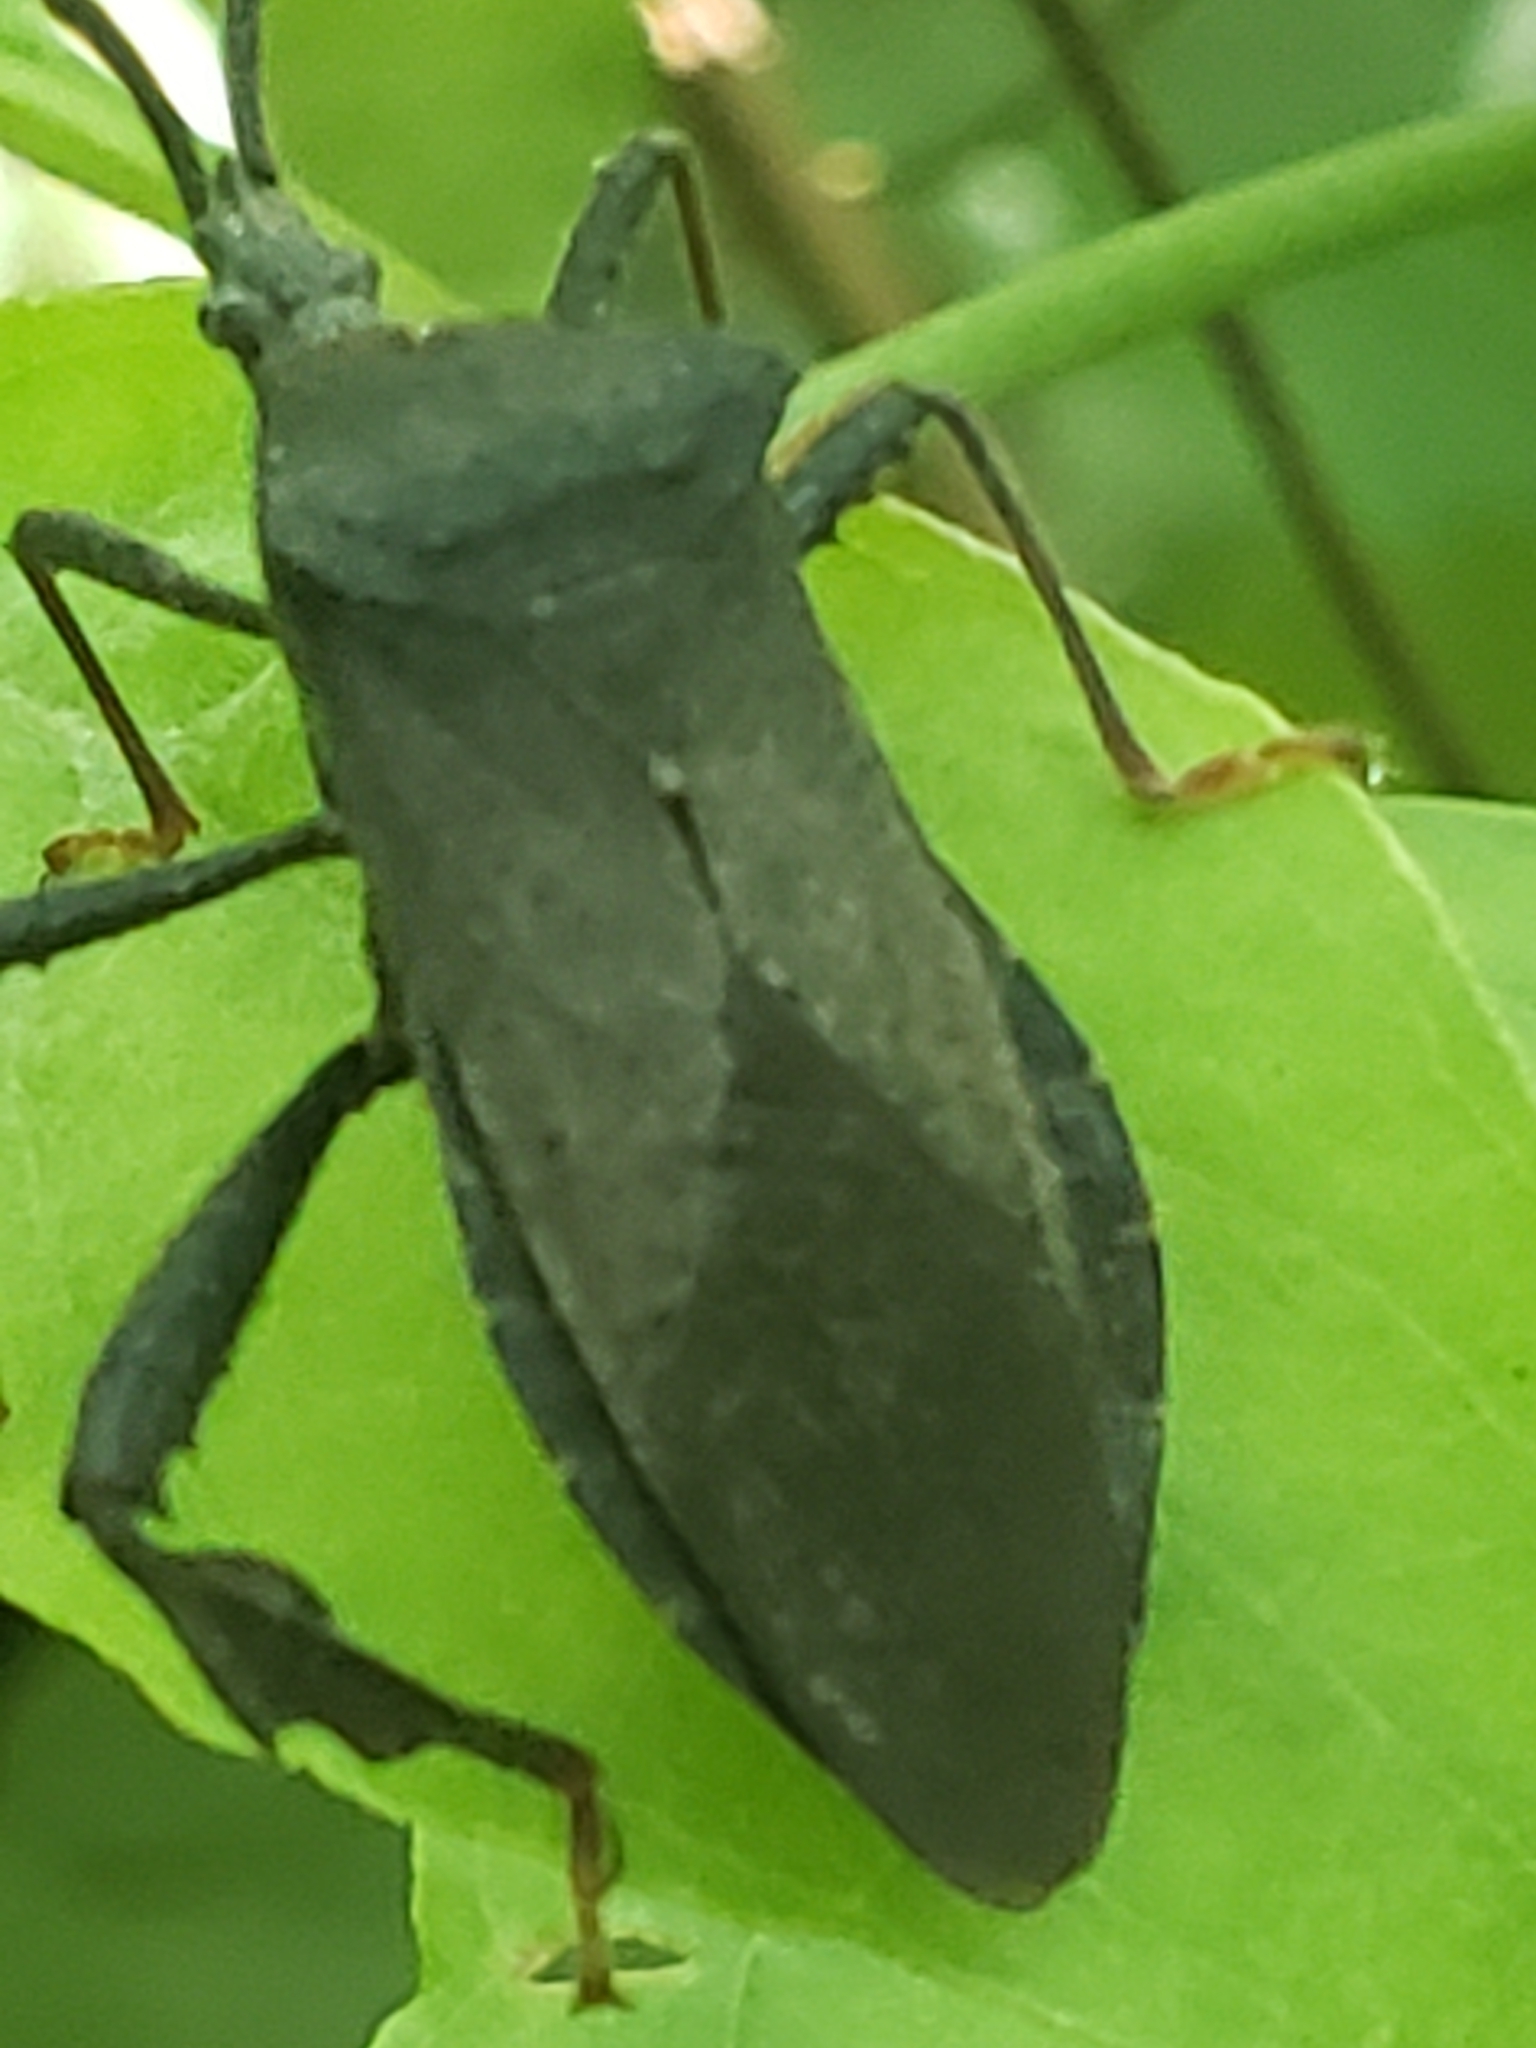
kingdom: Animalia
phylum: Arthropoda
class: Insecta
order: Hemiptera
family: Coreidae
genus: Acanthocephala
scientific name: Acanthocephala terminalis
